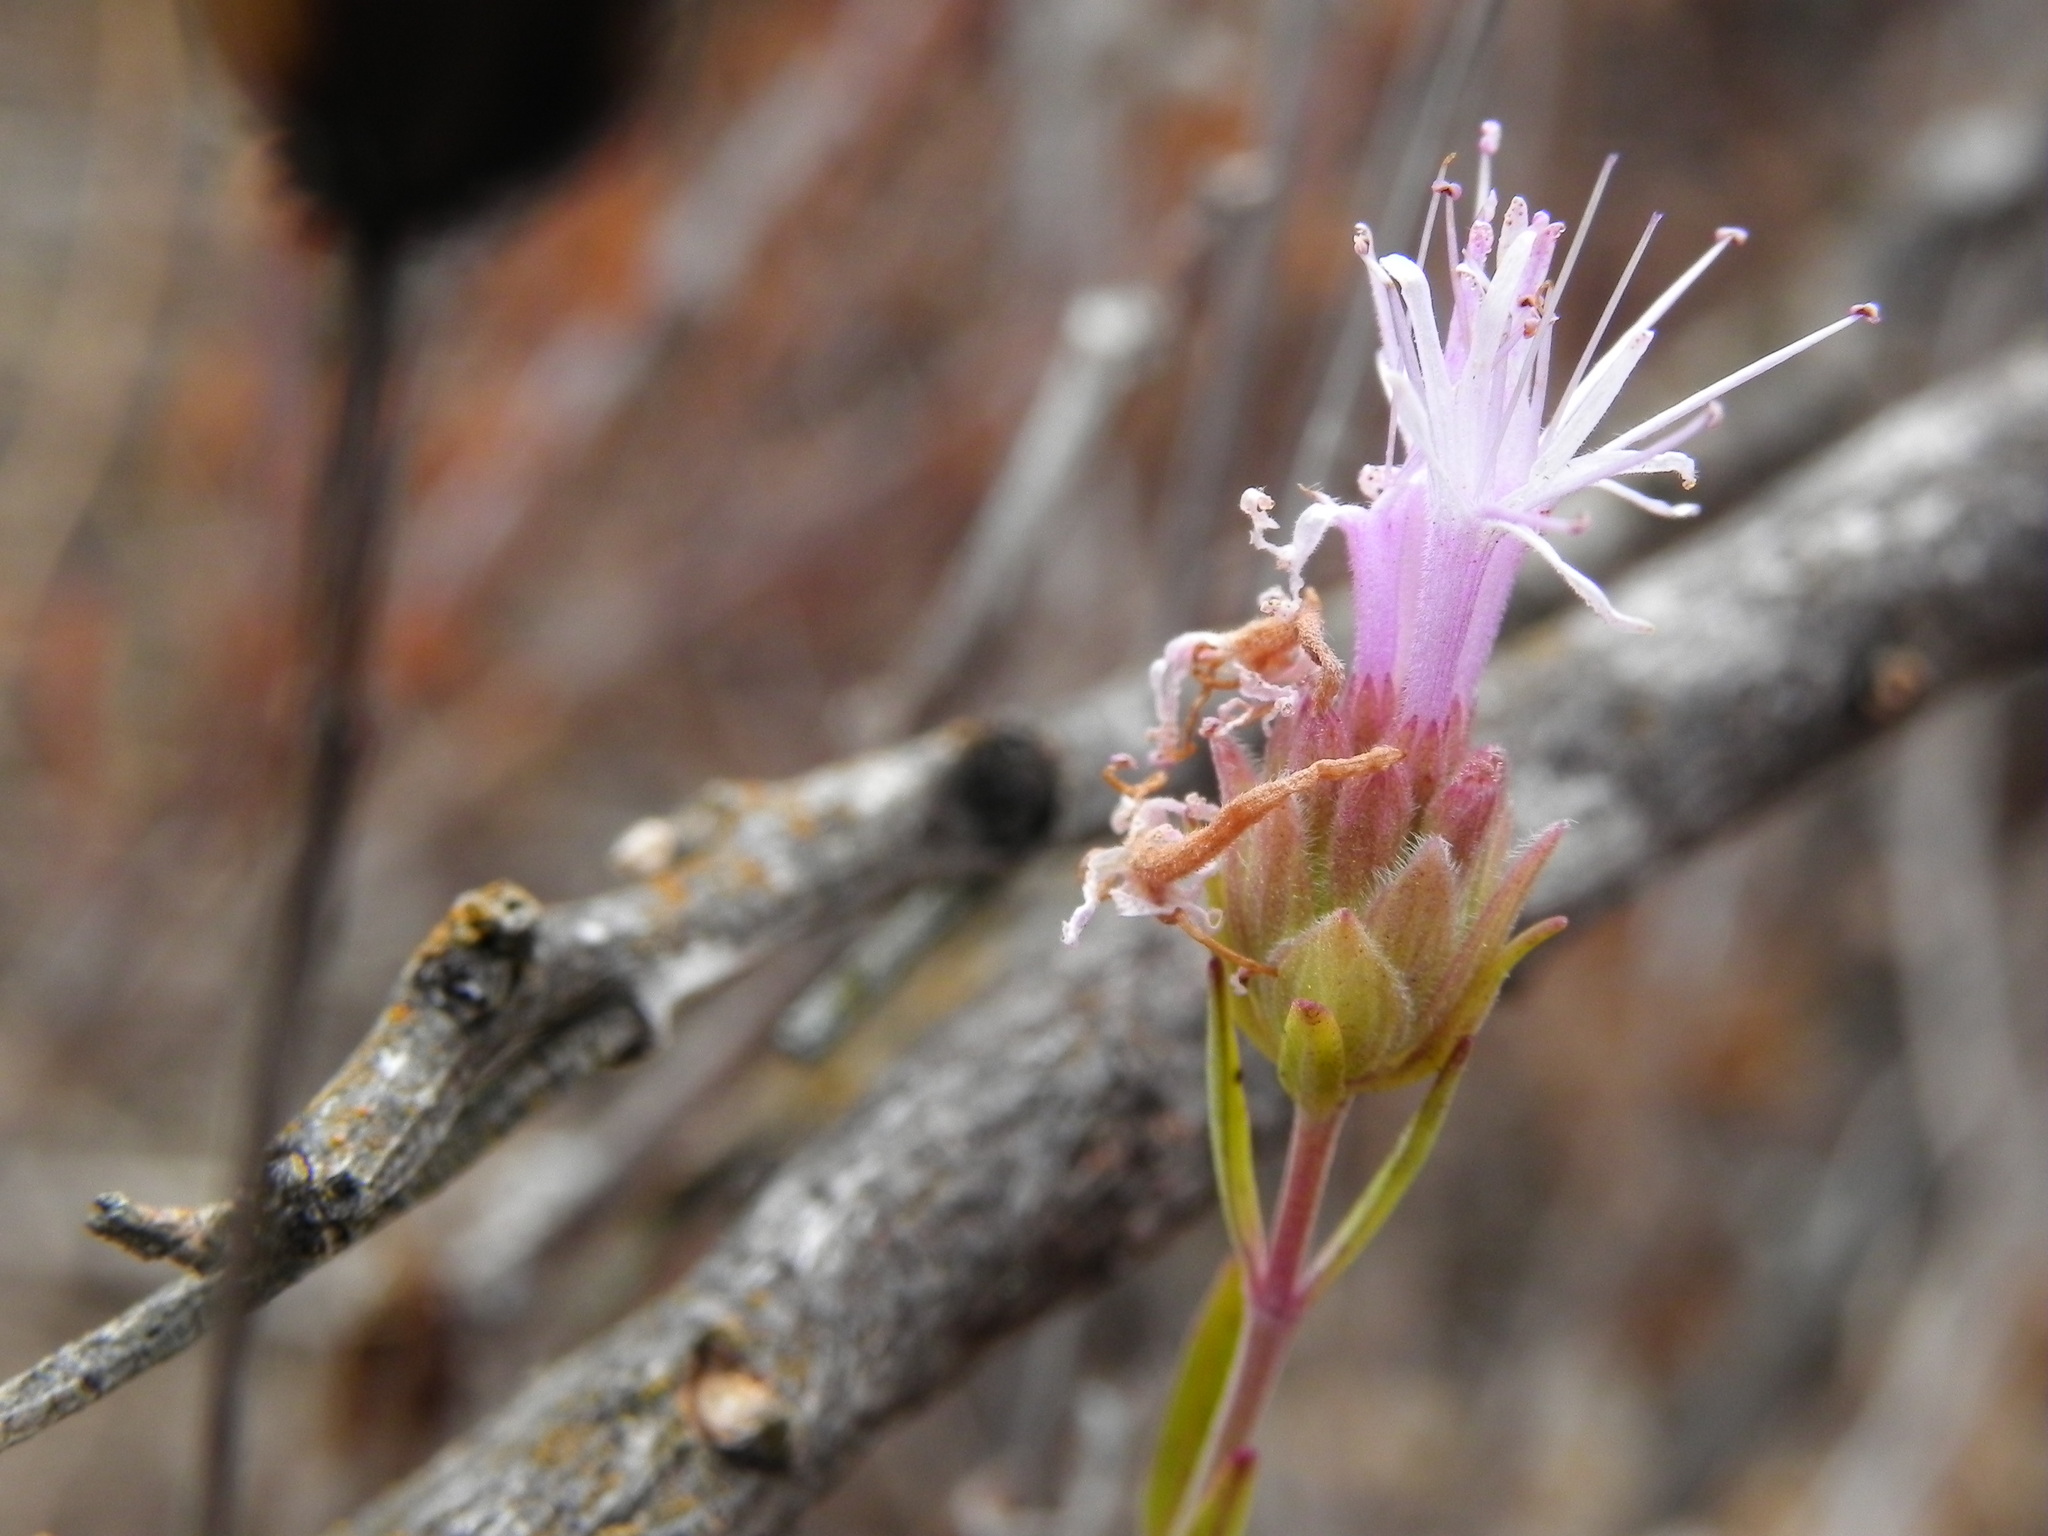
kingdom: Plantae
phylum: Tracheophyta
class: Magnoliopsida
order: Lamiales
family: Lamiaceae
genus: Monardella
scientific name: Monardella viminea
